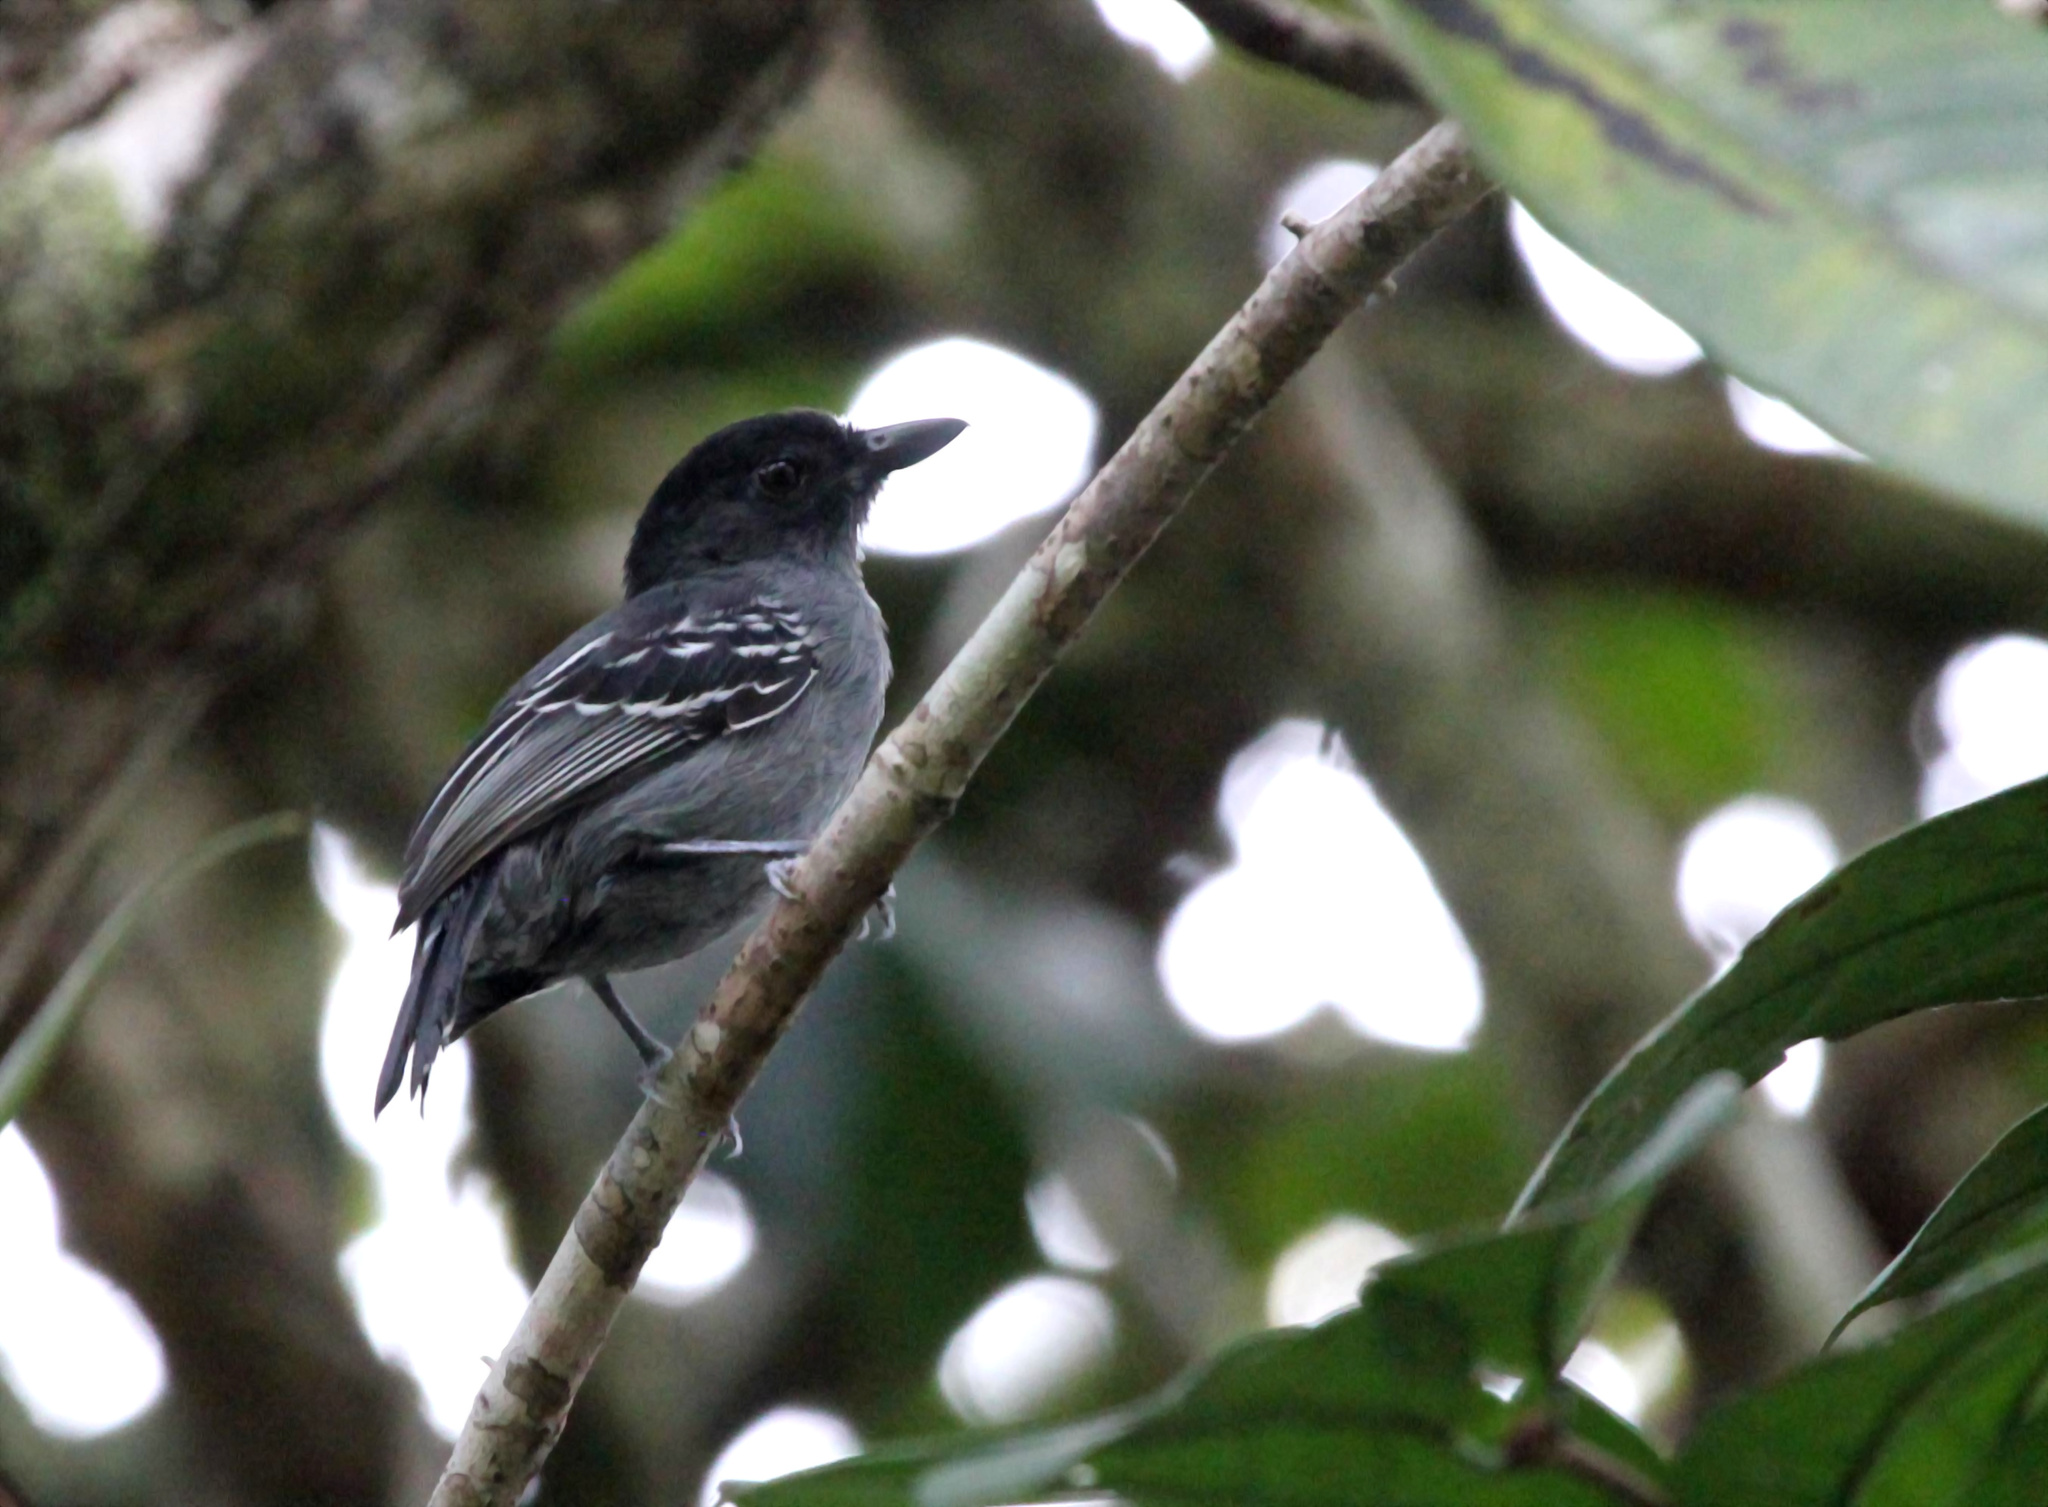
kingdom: Animalia
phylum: Chordata
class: Aves
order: Passeriformes
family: Thamnophilidae
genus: Thamnophilus
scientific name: Thamnophilus nigrocinereus
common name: Blackish-grey antshrike
